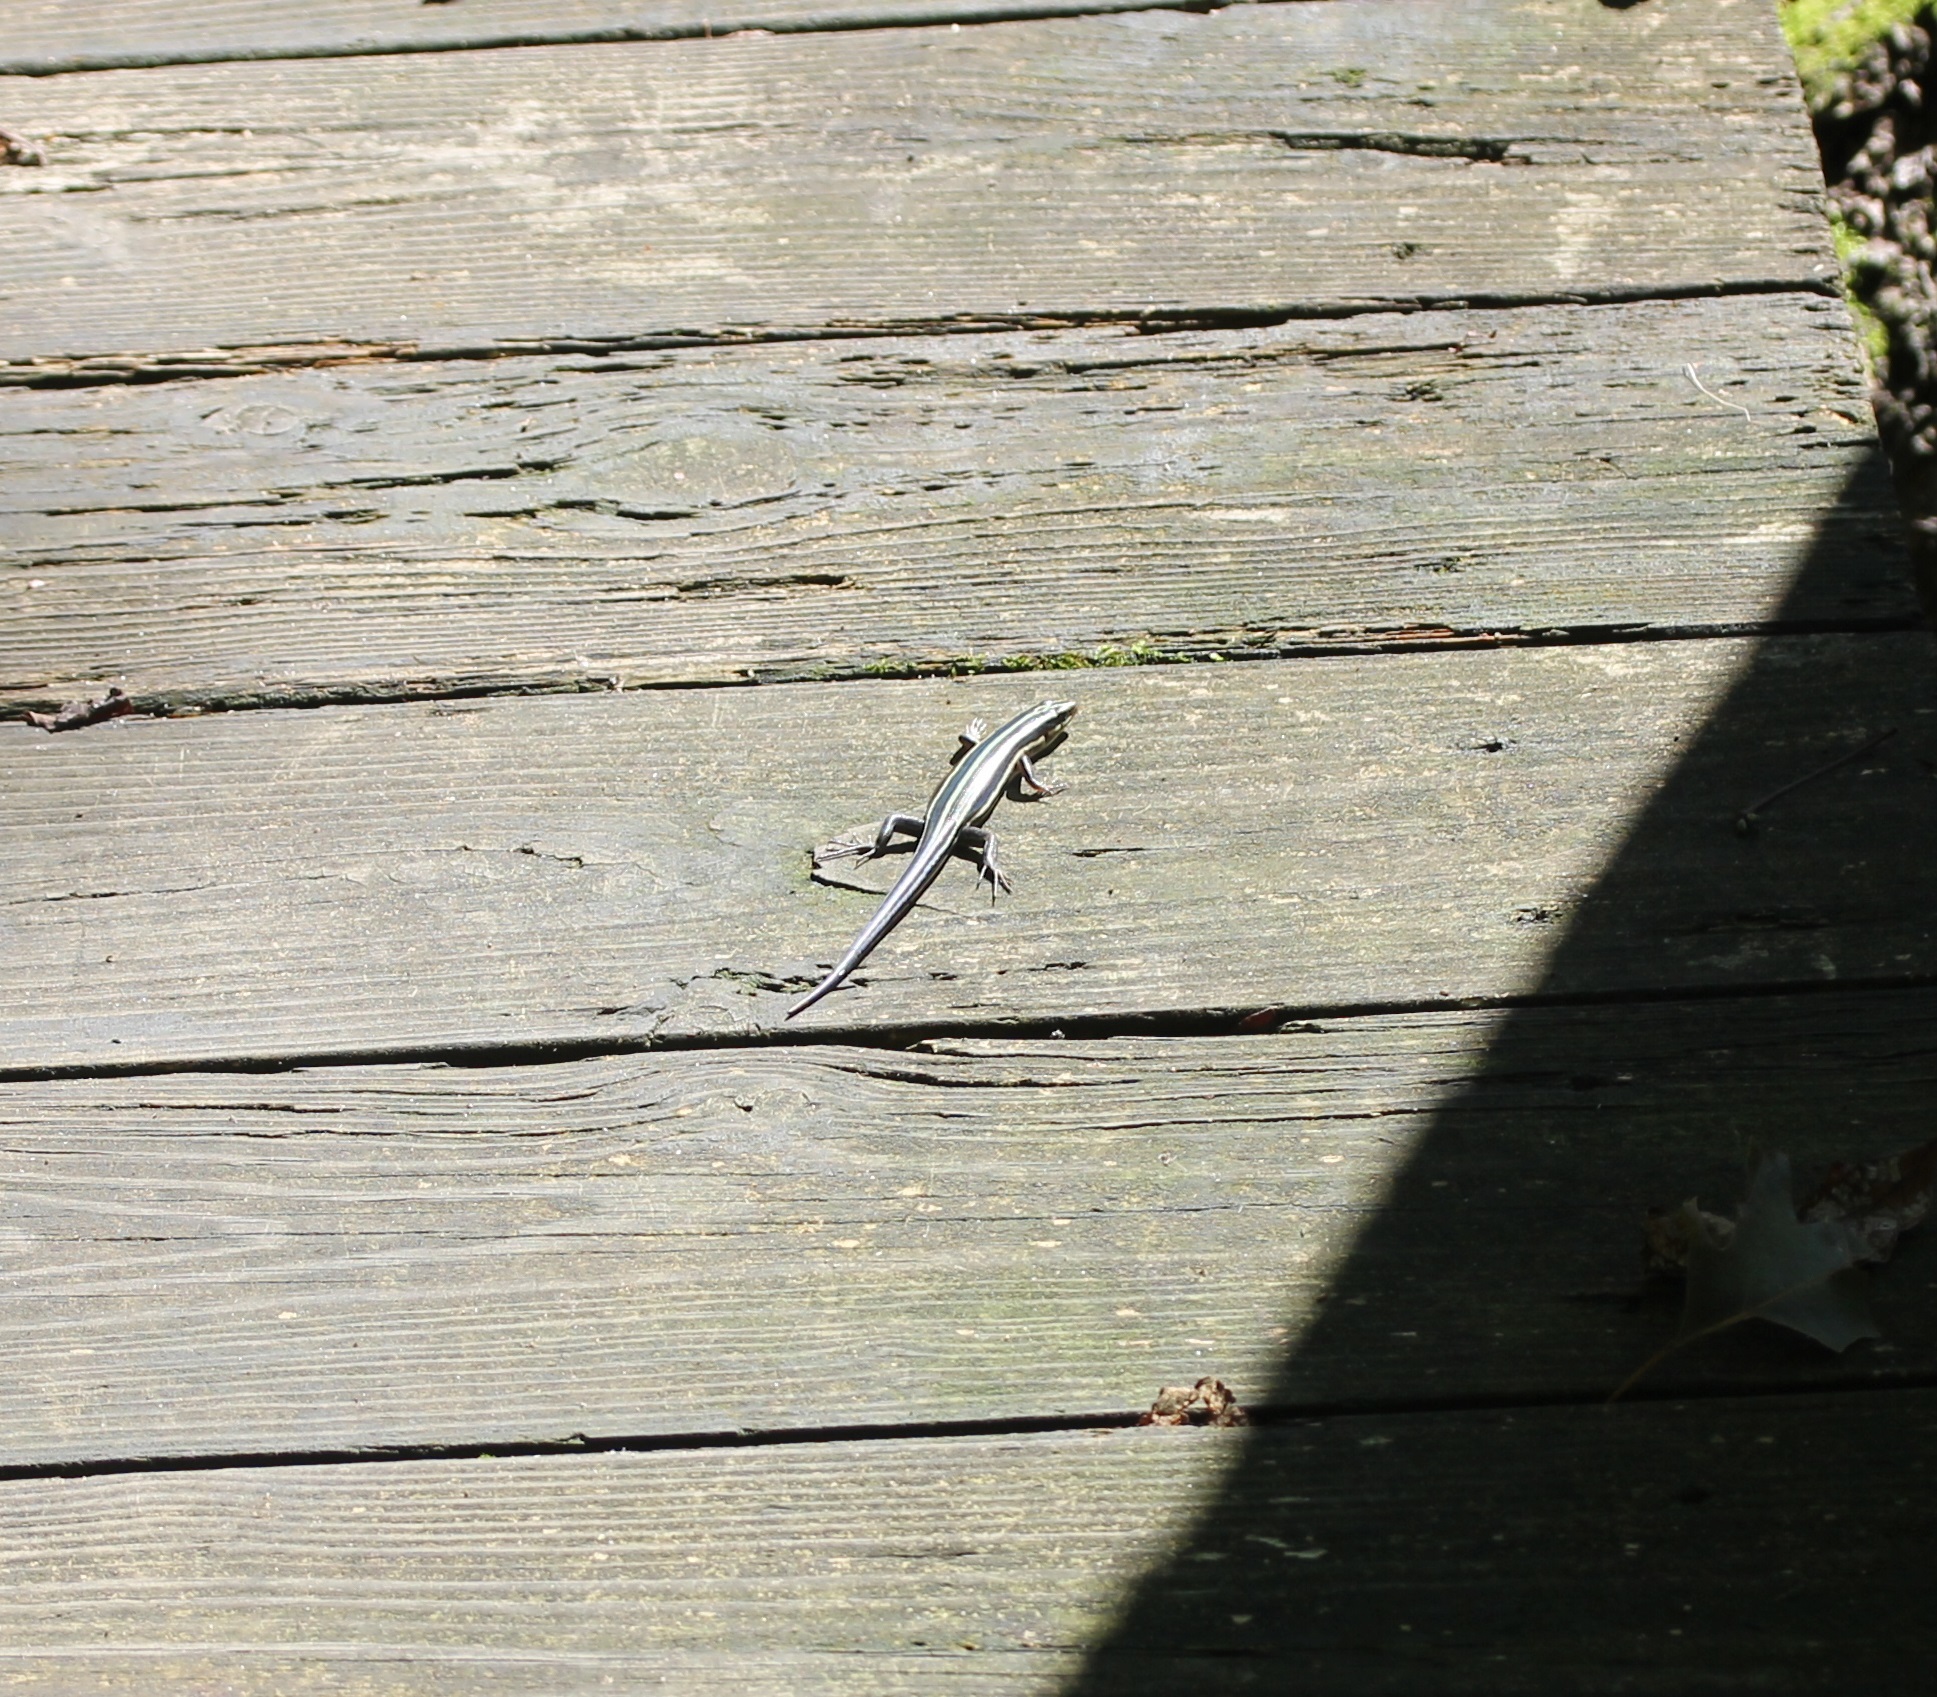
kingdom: Animalia
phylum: Chordata
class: Squamata
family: Scincidae
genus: Plestiodon
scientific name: Plestiodon fasciatus
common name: Five-lined skink
